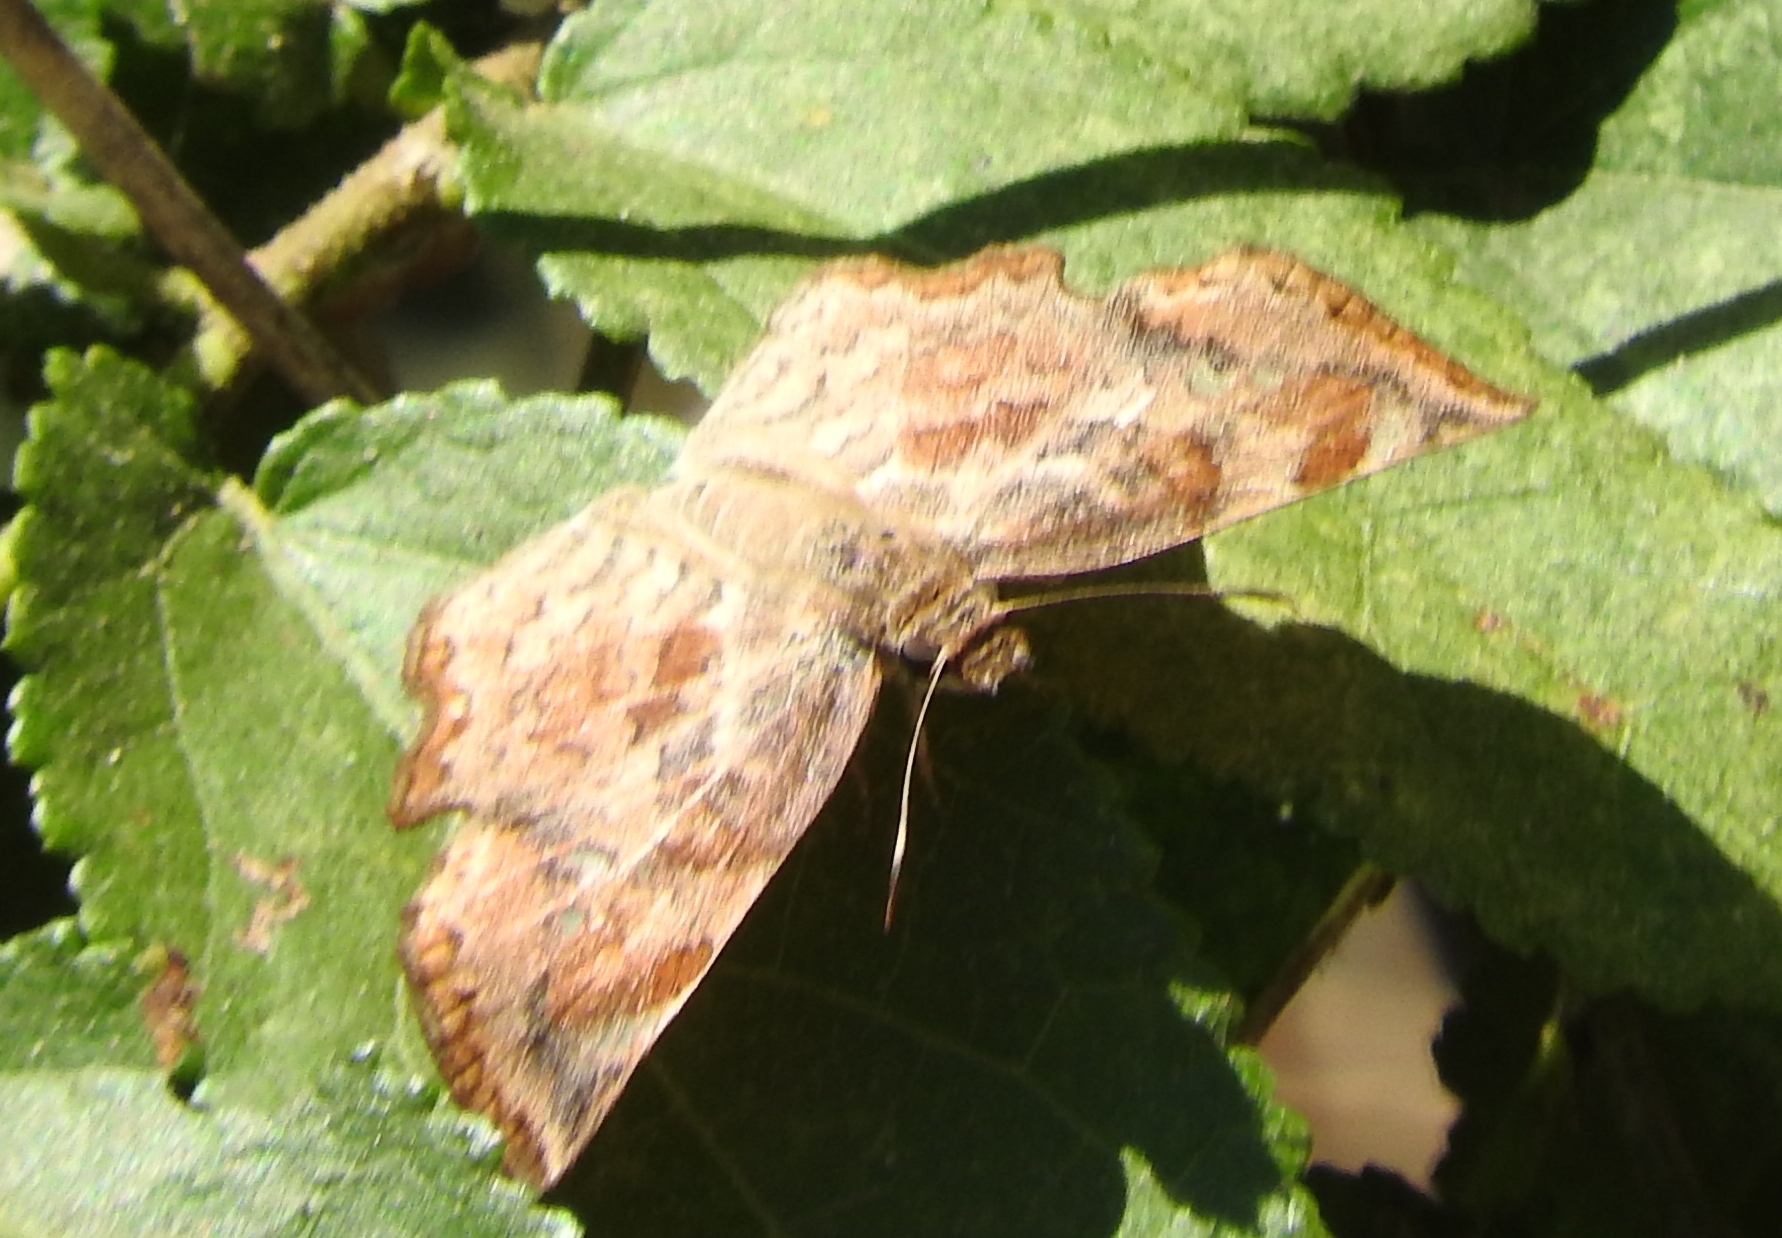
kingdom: Animalia
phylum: Arthropoda
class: Insecta
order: Lepidoptera
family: Hesperiidae
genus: Antigonus
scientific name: Antigonus erosus
